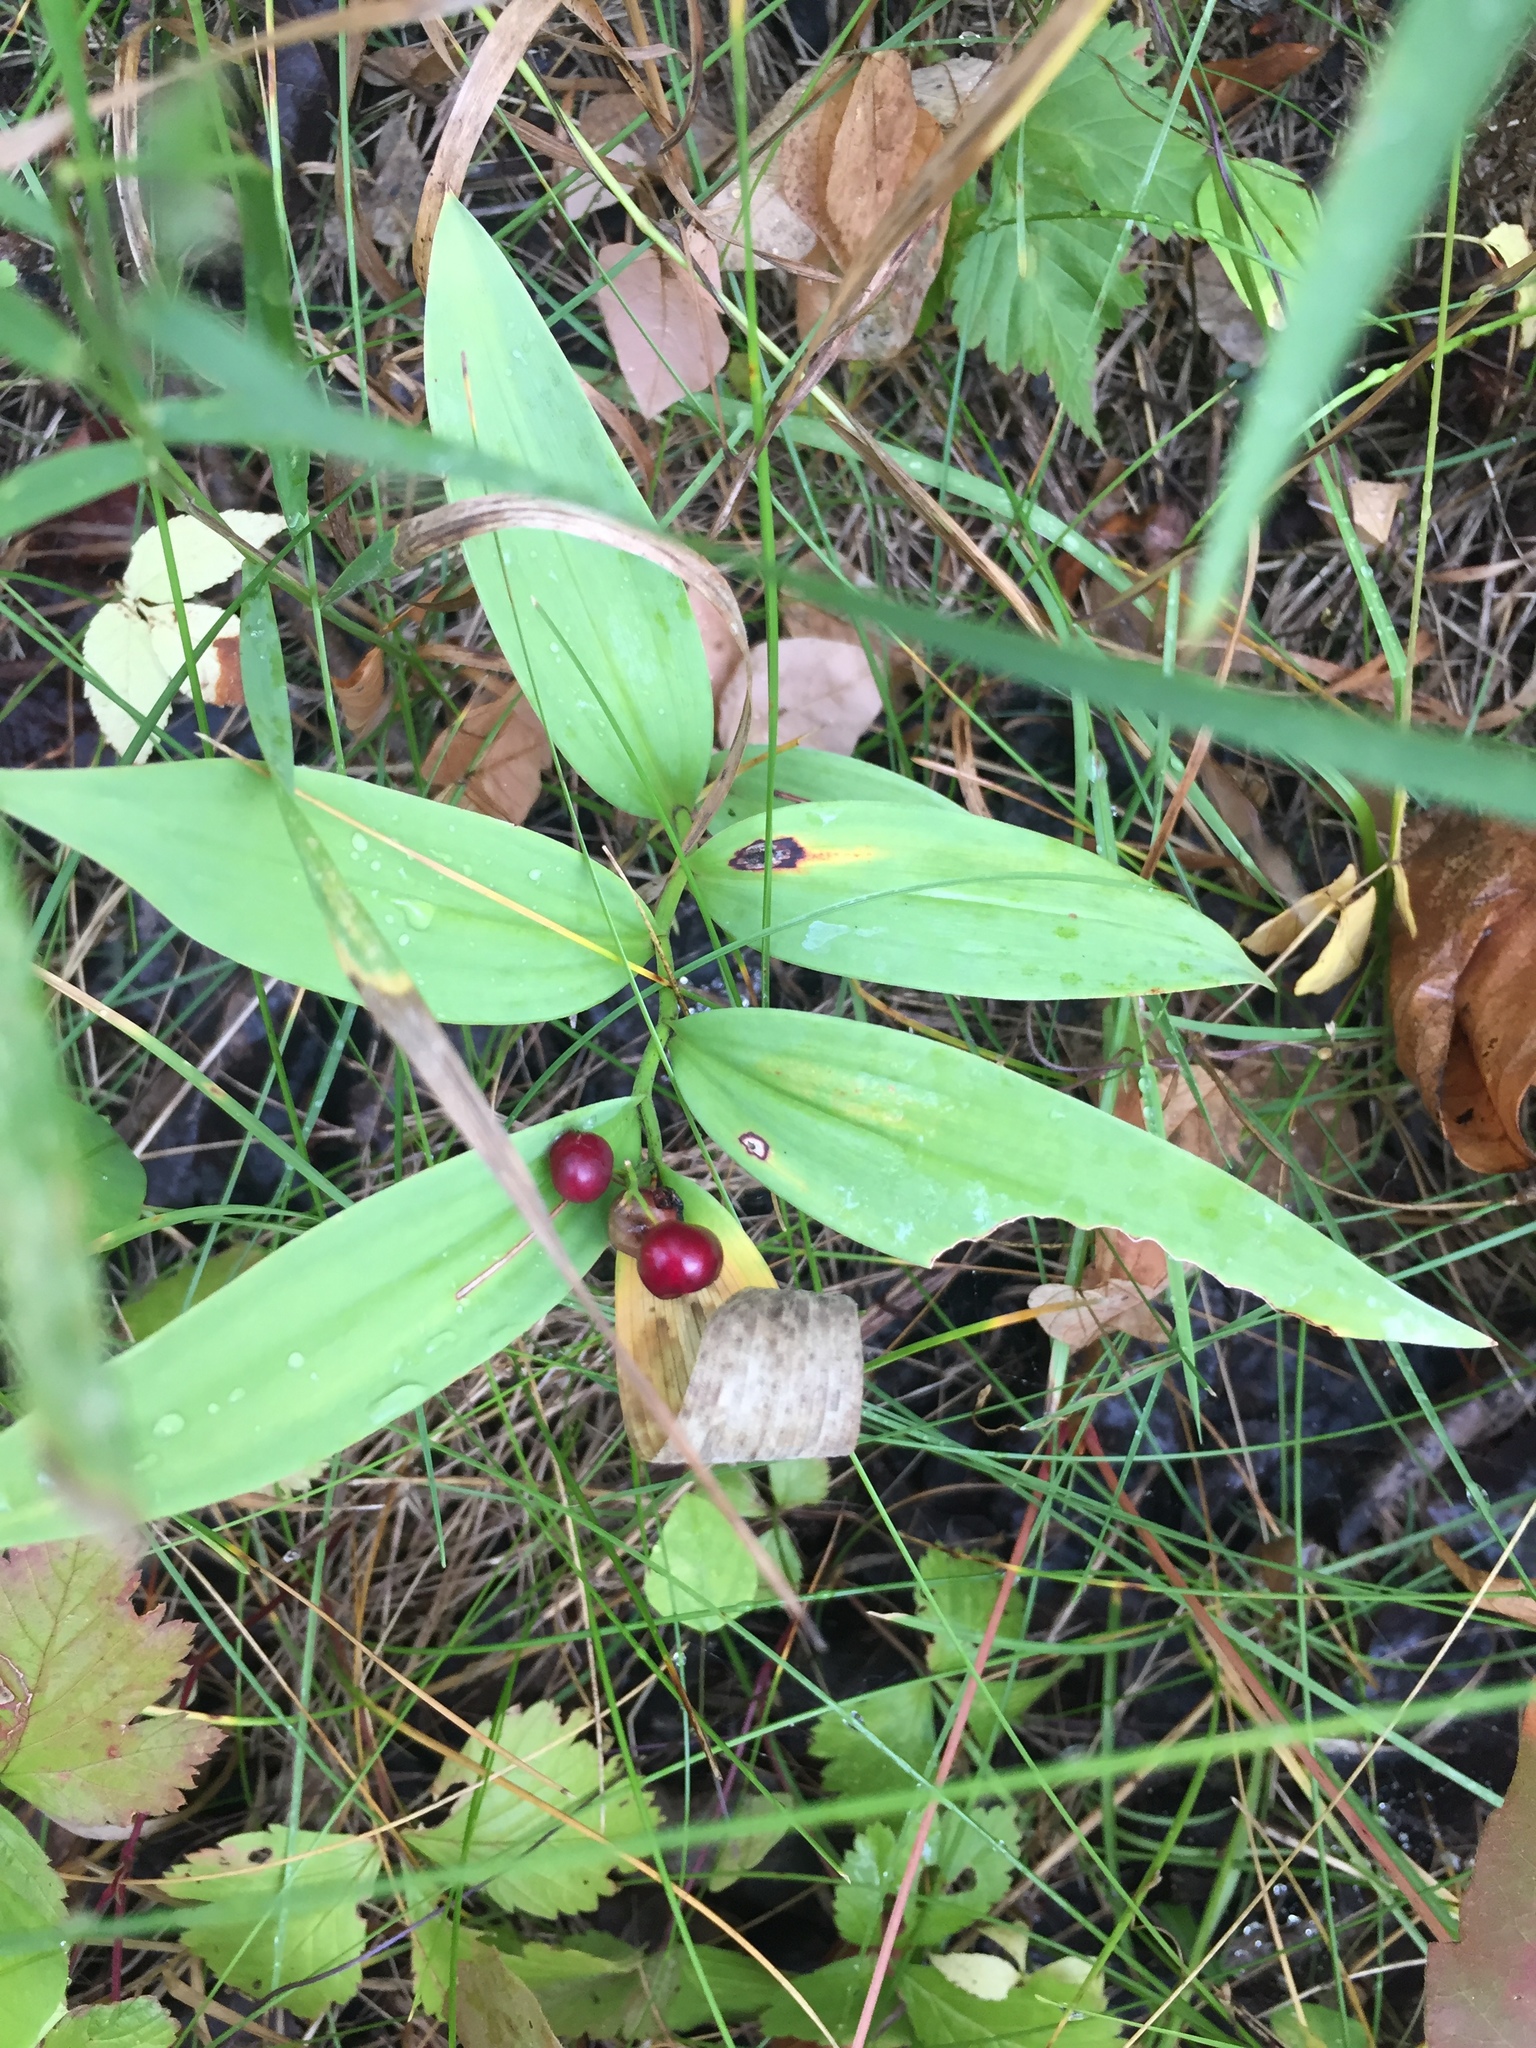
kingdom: Plantae
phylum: Tracheophyta
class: Liliopsida
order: Asparagales
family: Asparagaceae
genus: Maianthemum
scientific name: Maianthemum stellatum
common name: Little false solomon's seal
